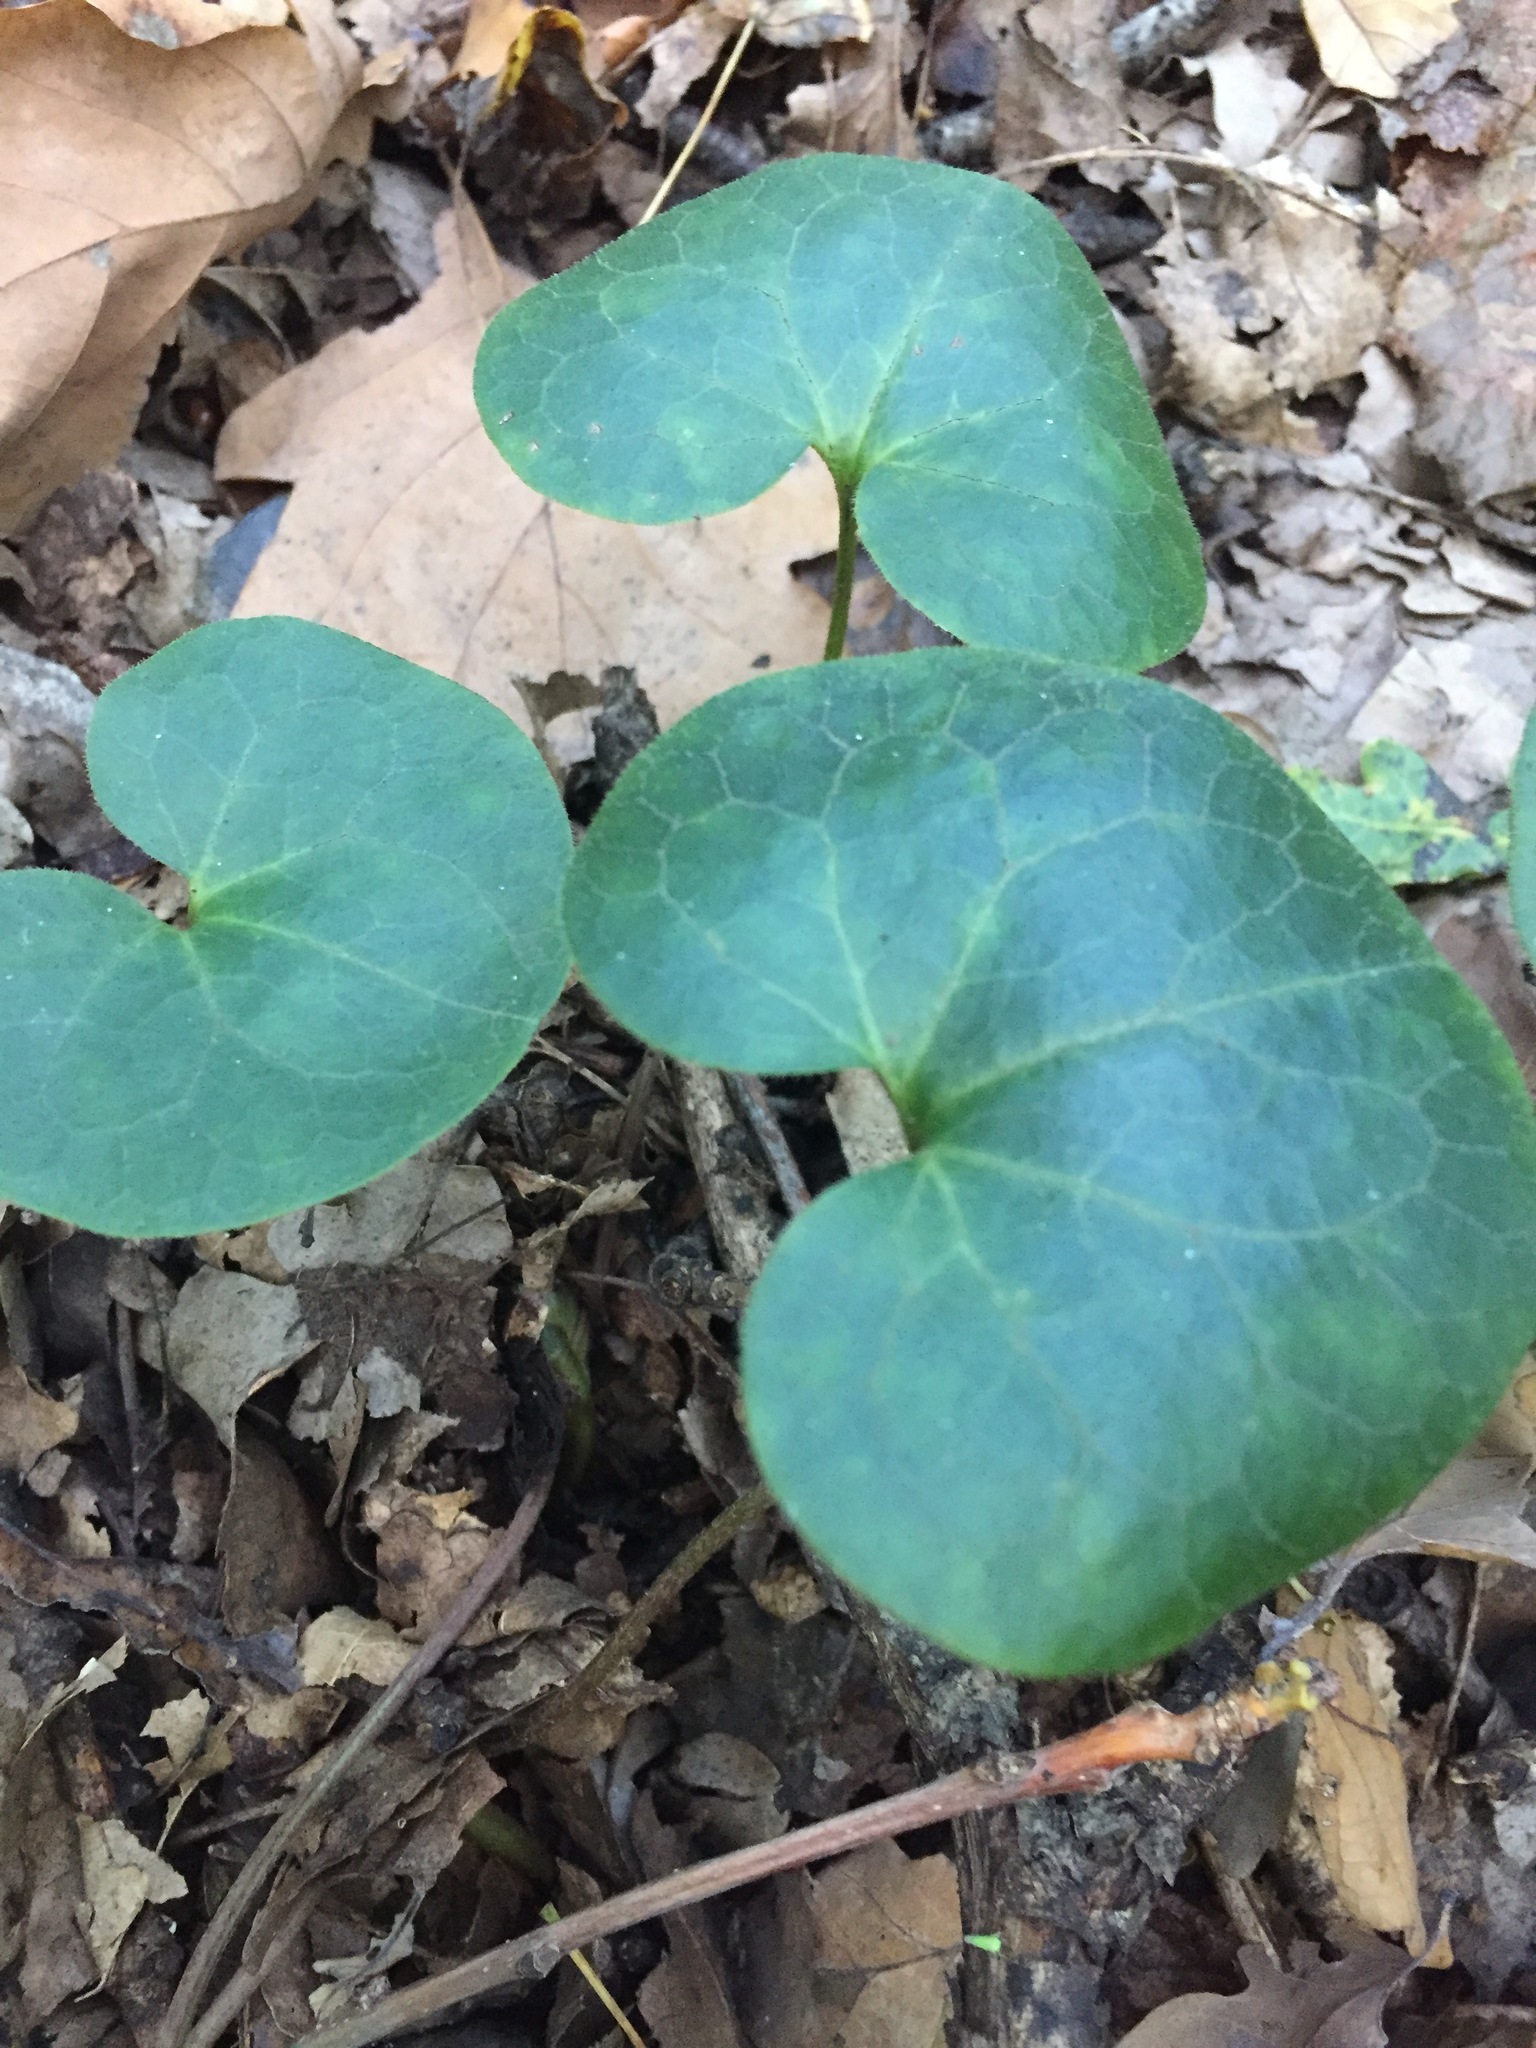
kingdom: Plantae
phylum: Tracheophyta
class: Magnoliopsida
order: Piperales
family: Aristolochiaceae
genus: Asarum
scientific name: Asarum europaeum
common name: Asarabacca
